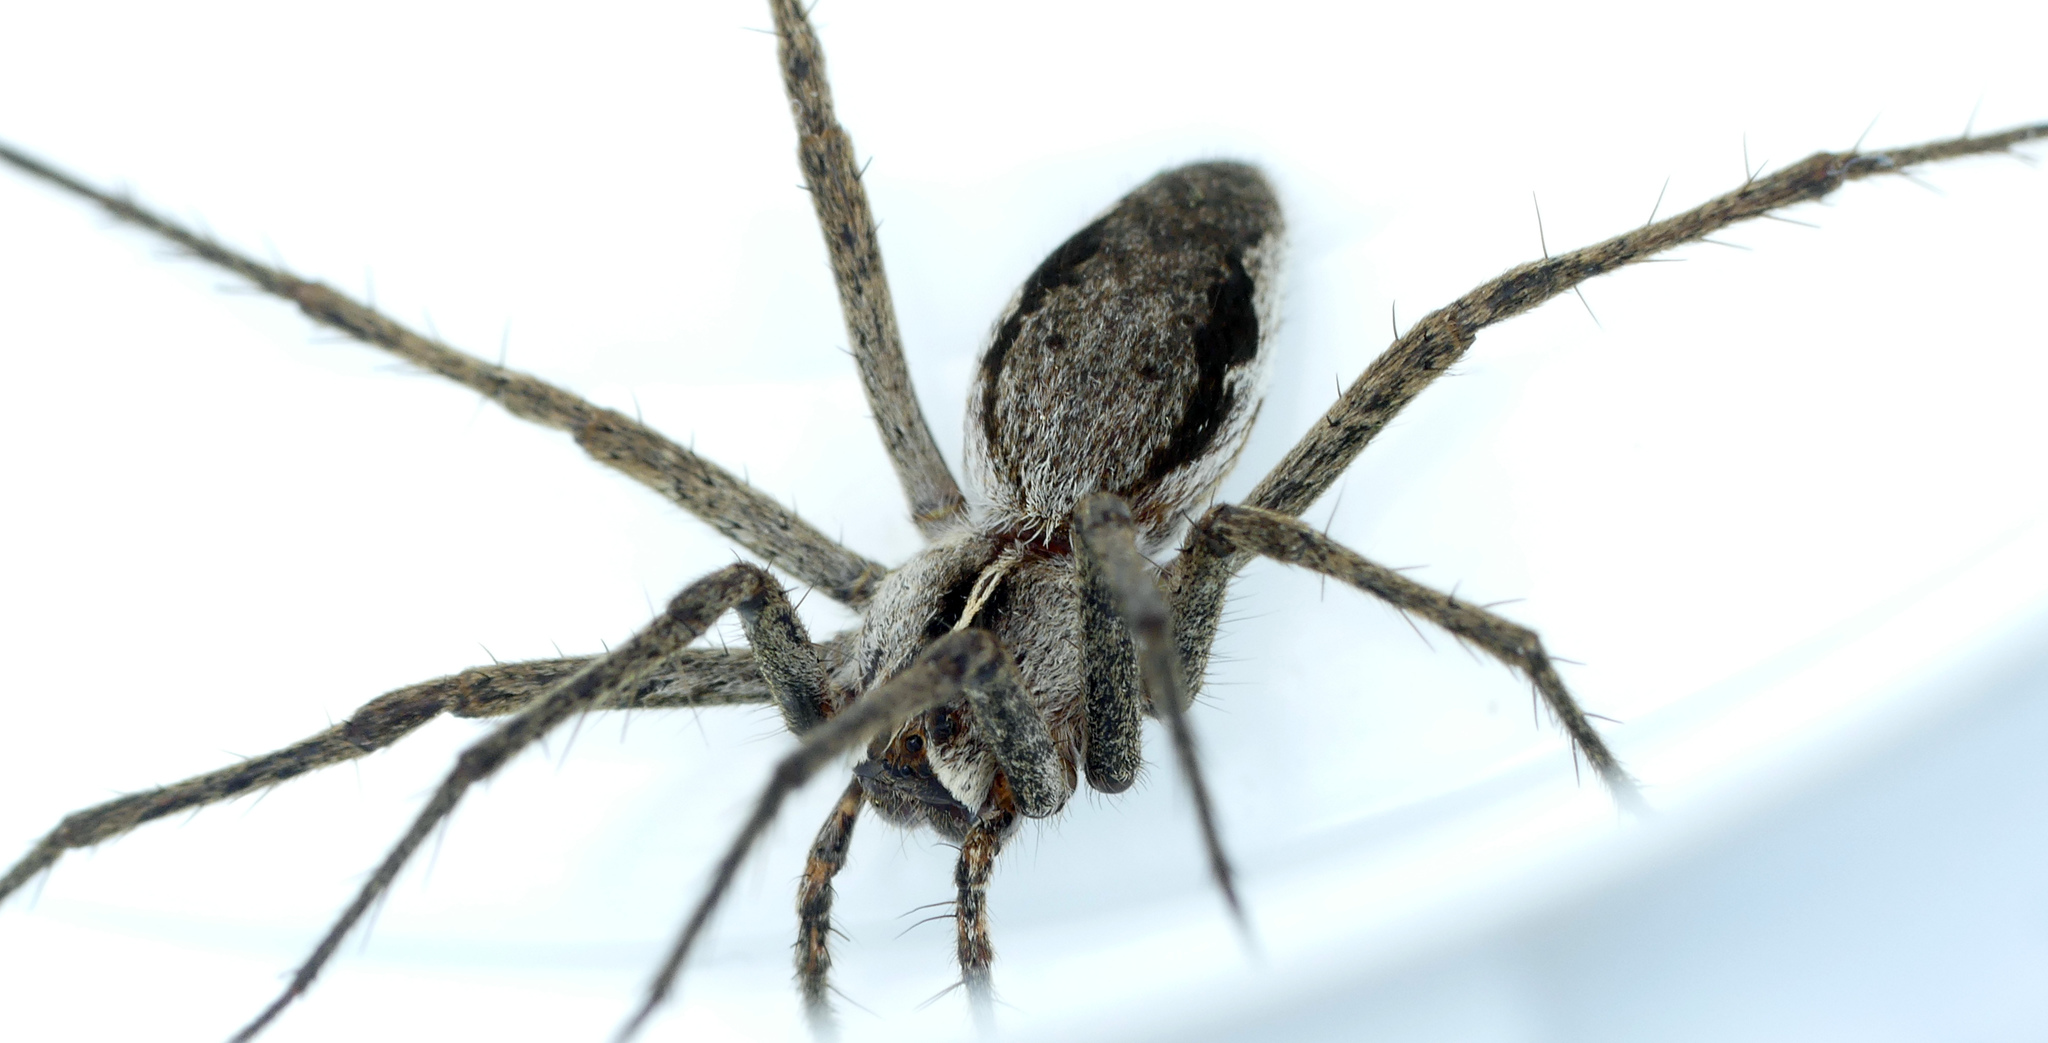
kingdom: Animalia
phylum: Arthropoda
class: Arachnida
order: Araneae
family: Pisauridae
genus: Pisaura
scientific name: Pisaura mirabilis
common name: Tent spider
